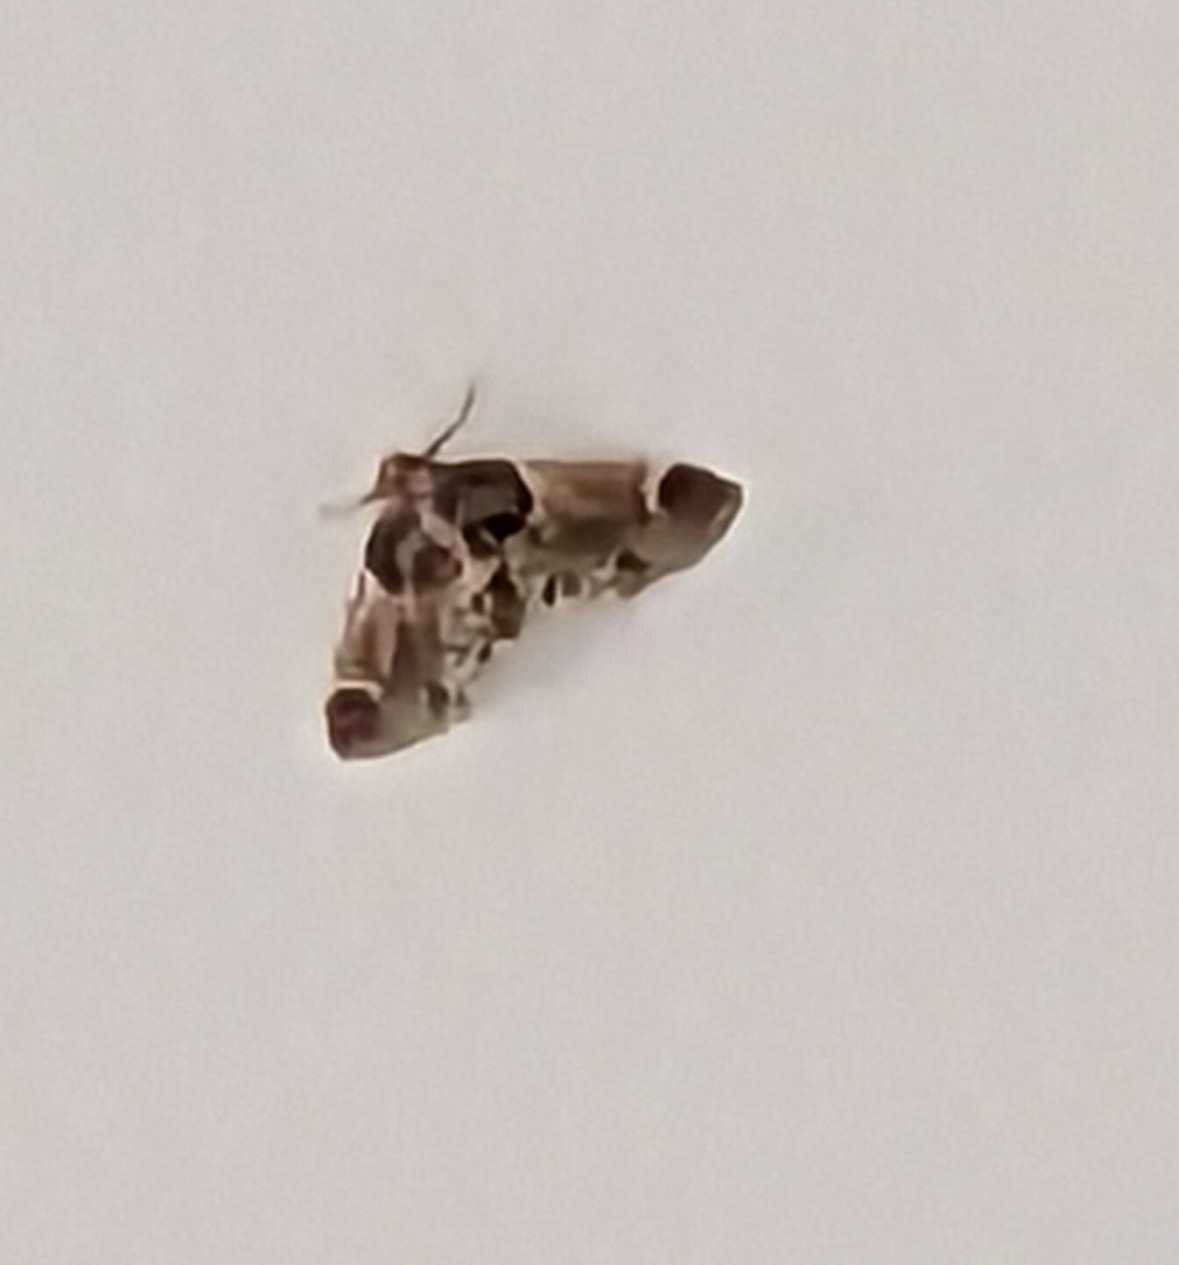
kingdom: Animalia
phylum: Arthropoda
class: Insecta
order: Lepidoptera
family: Pyralidae
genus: Pyralis
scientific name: Pyralis farinalis
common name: Meal moth
